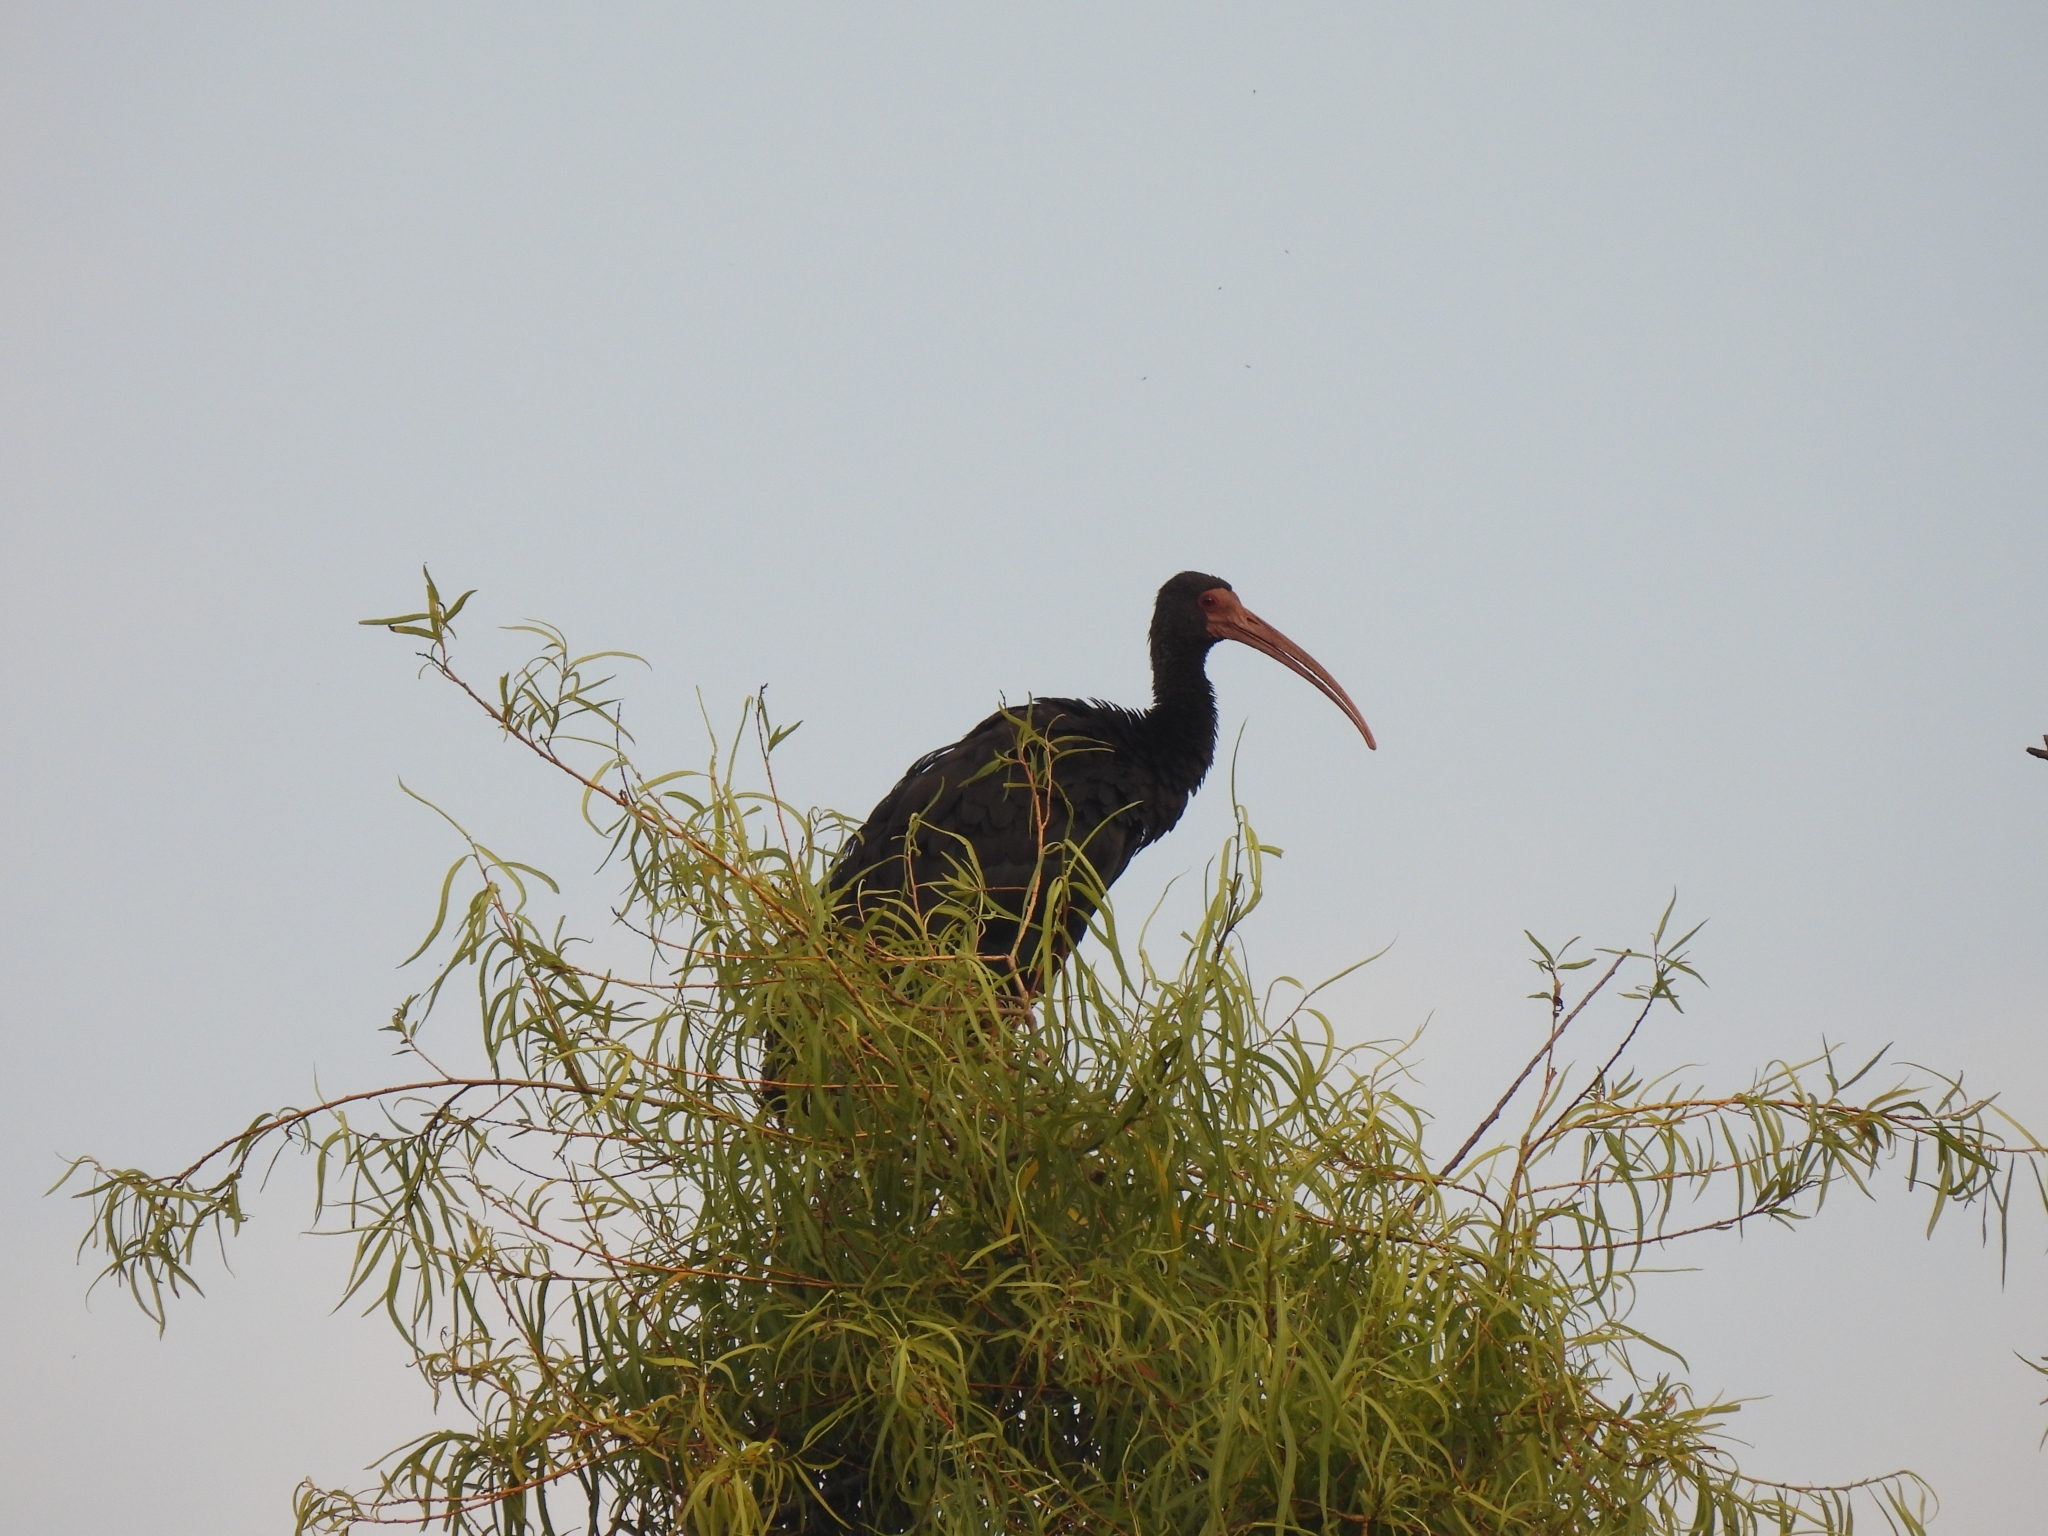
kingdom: Animalia
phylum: Chordata
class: Aves
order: Pelecaniformes
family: Threskiornithidae
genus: Phimosus
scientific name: Phimosus infuscatus
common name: Bare-faced ibis
